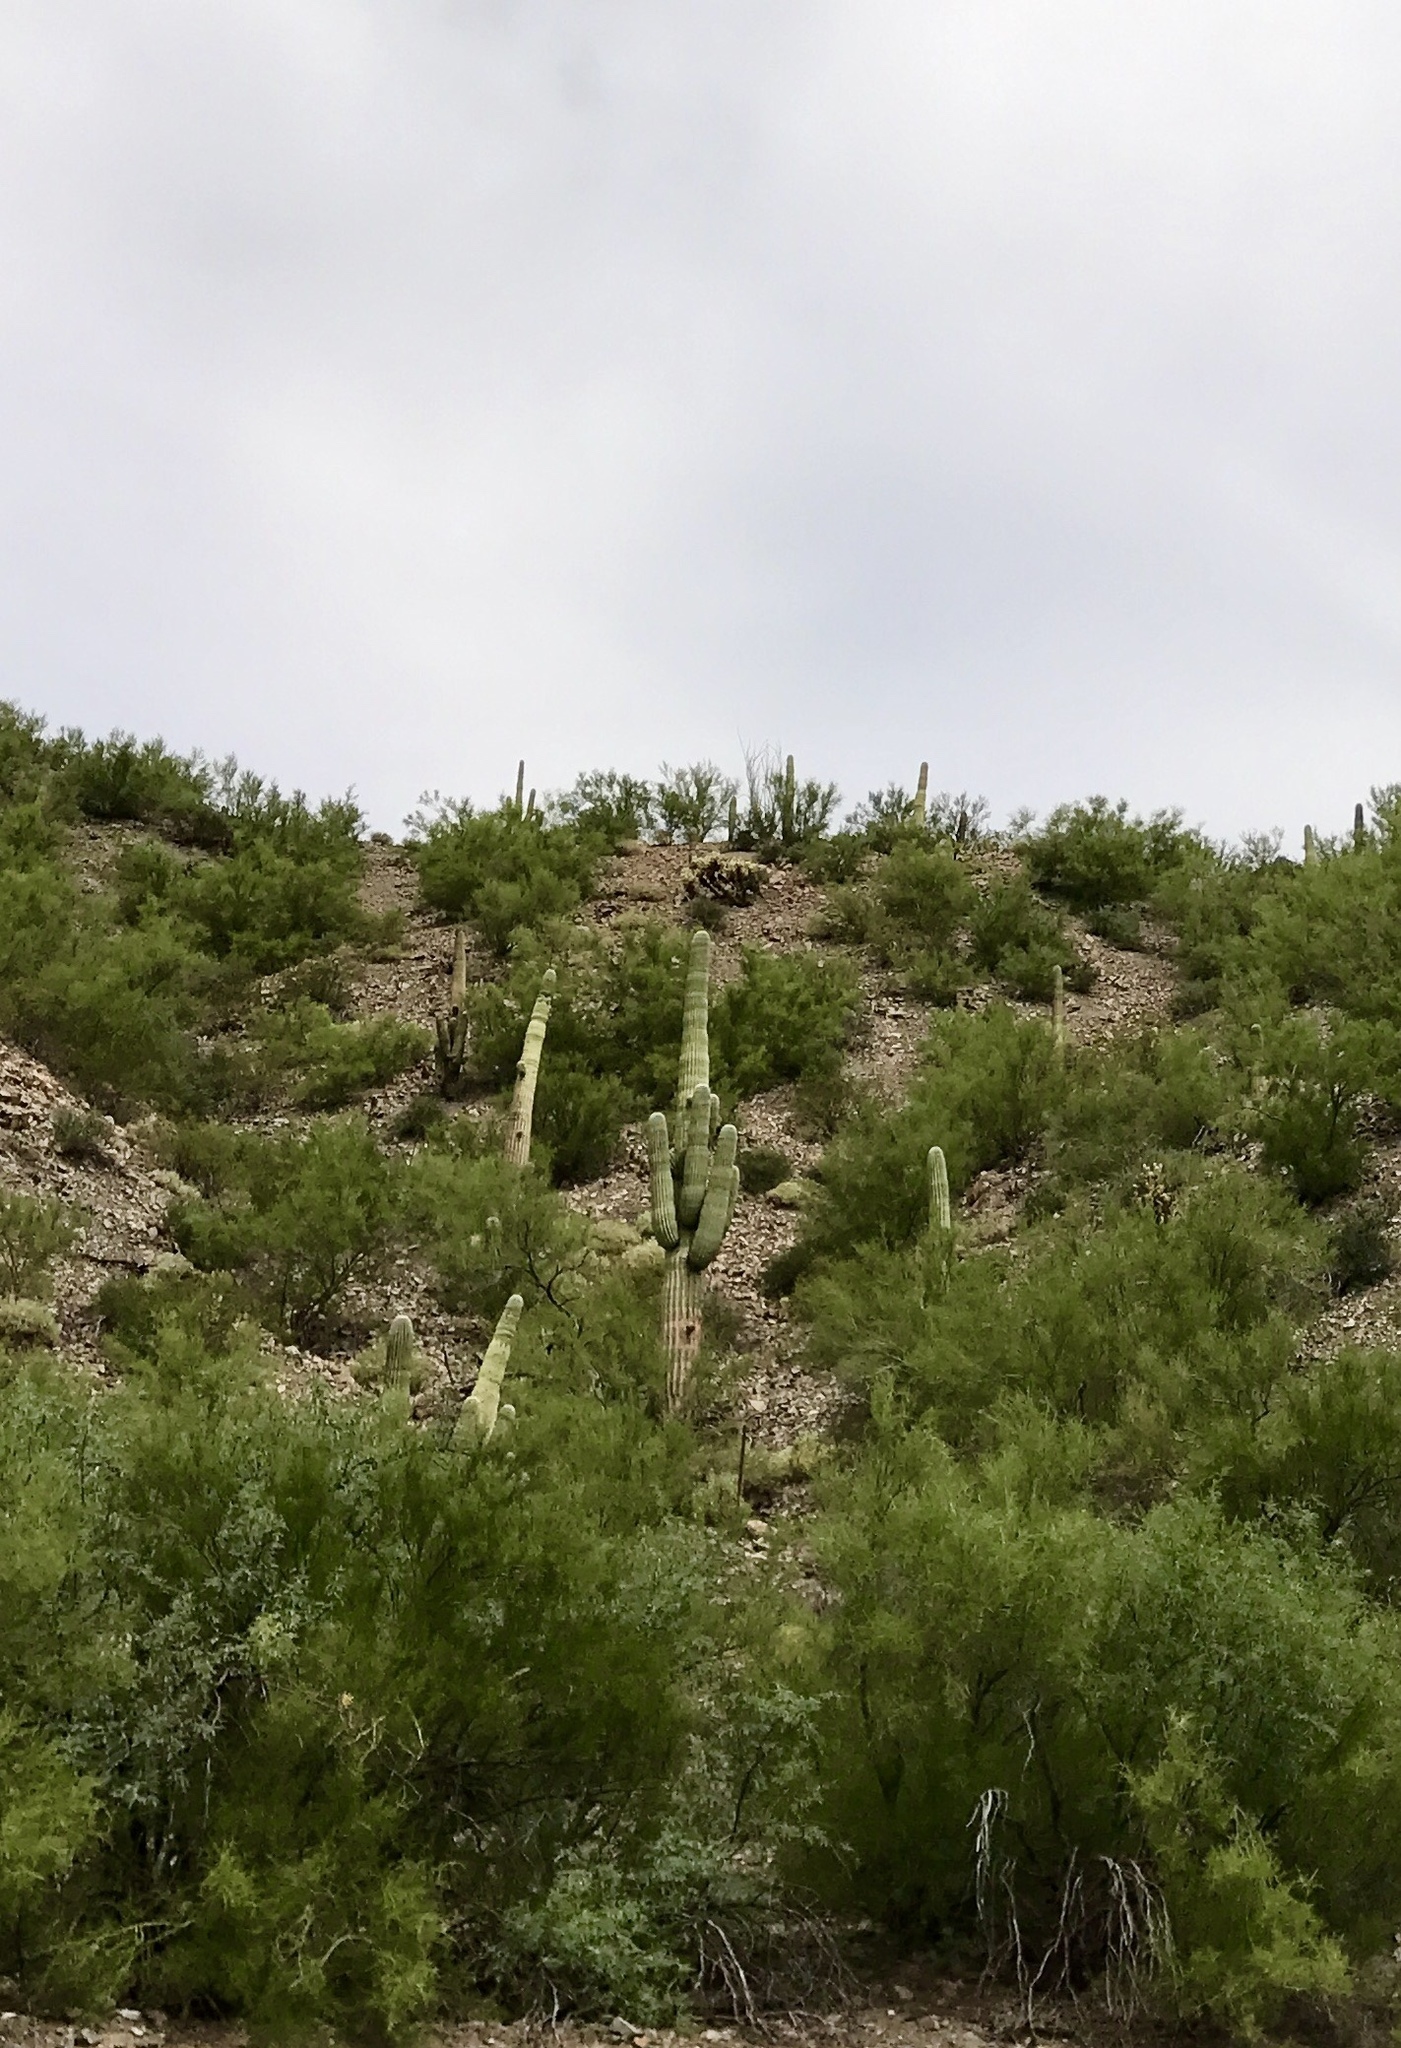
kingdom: Plantae
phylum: Tracheophyta
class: Magnoliopsida
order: Caryophyllales
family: Cactaceae
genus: Carnegiea
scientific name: Carnegiea gigantea
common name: Saguaro
